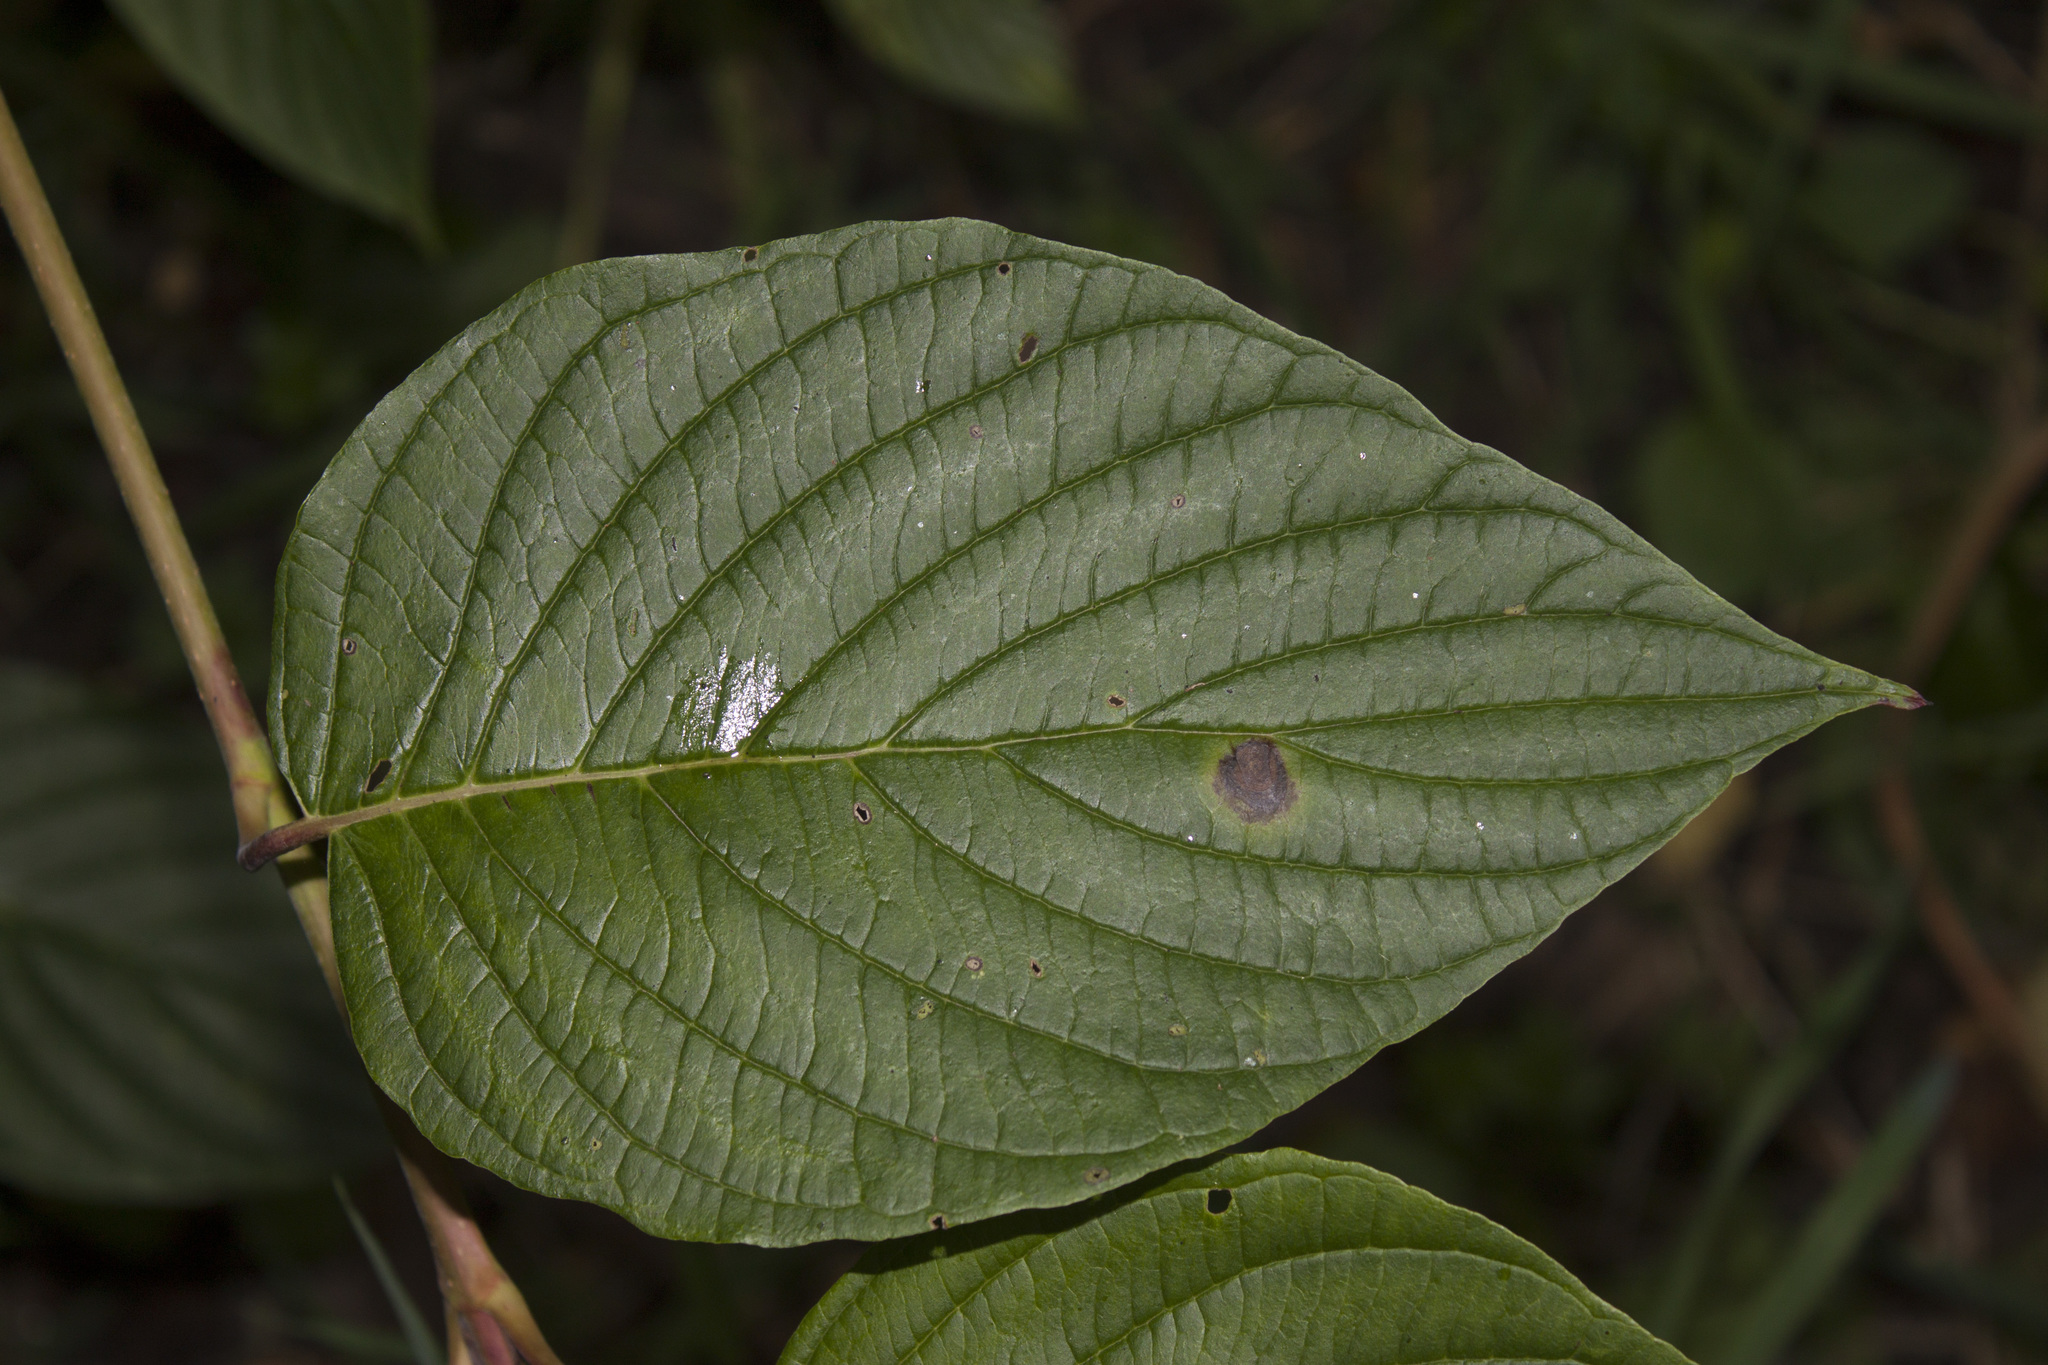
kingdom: Plantae
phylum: Tracheophyta
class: Magnoliopsida
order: Cornales
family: Cornaceae
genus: Cornus
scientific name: Cornus torreyi
